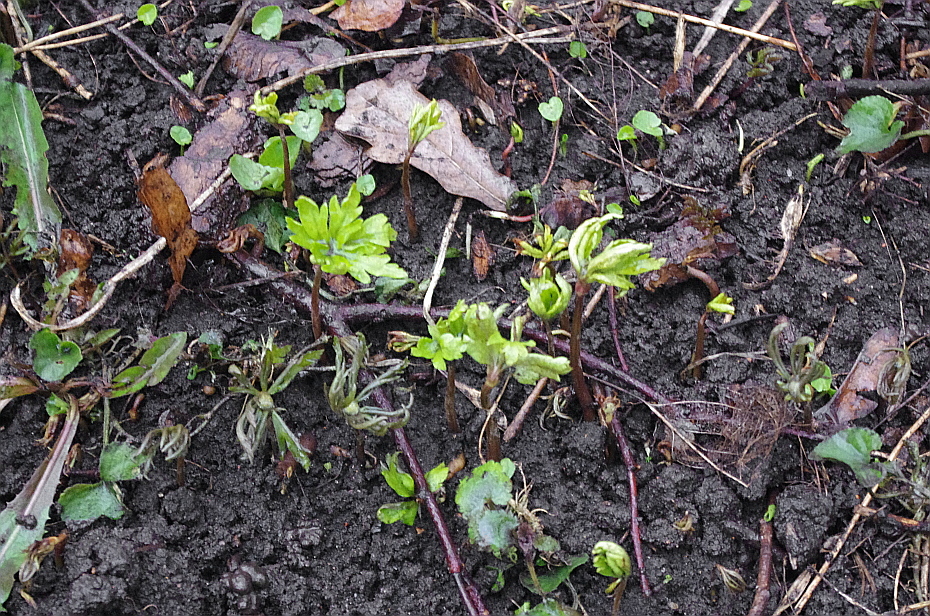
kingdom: Plantae
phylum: Tracheophyta
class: Magnoliopsida
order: Ranunculales
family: Ranunculaceae
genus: Anemone
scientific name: Anemone ranunculoides
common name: Yellow anemone
